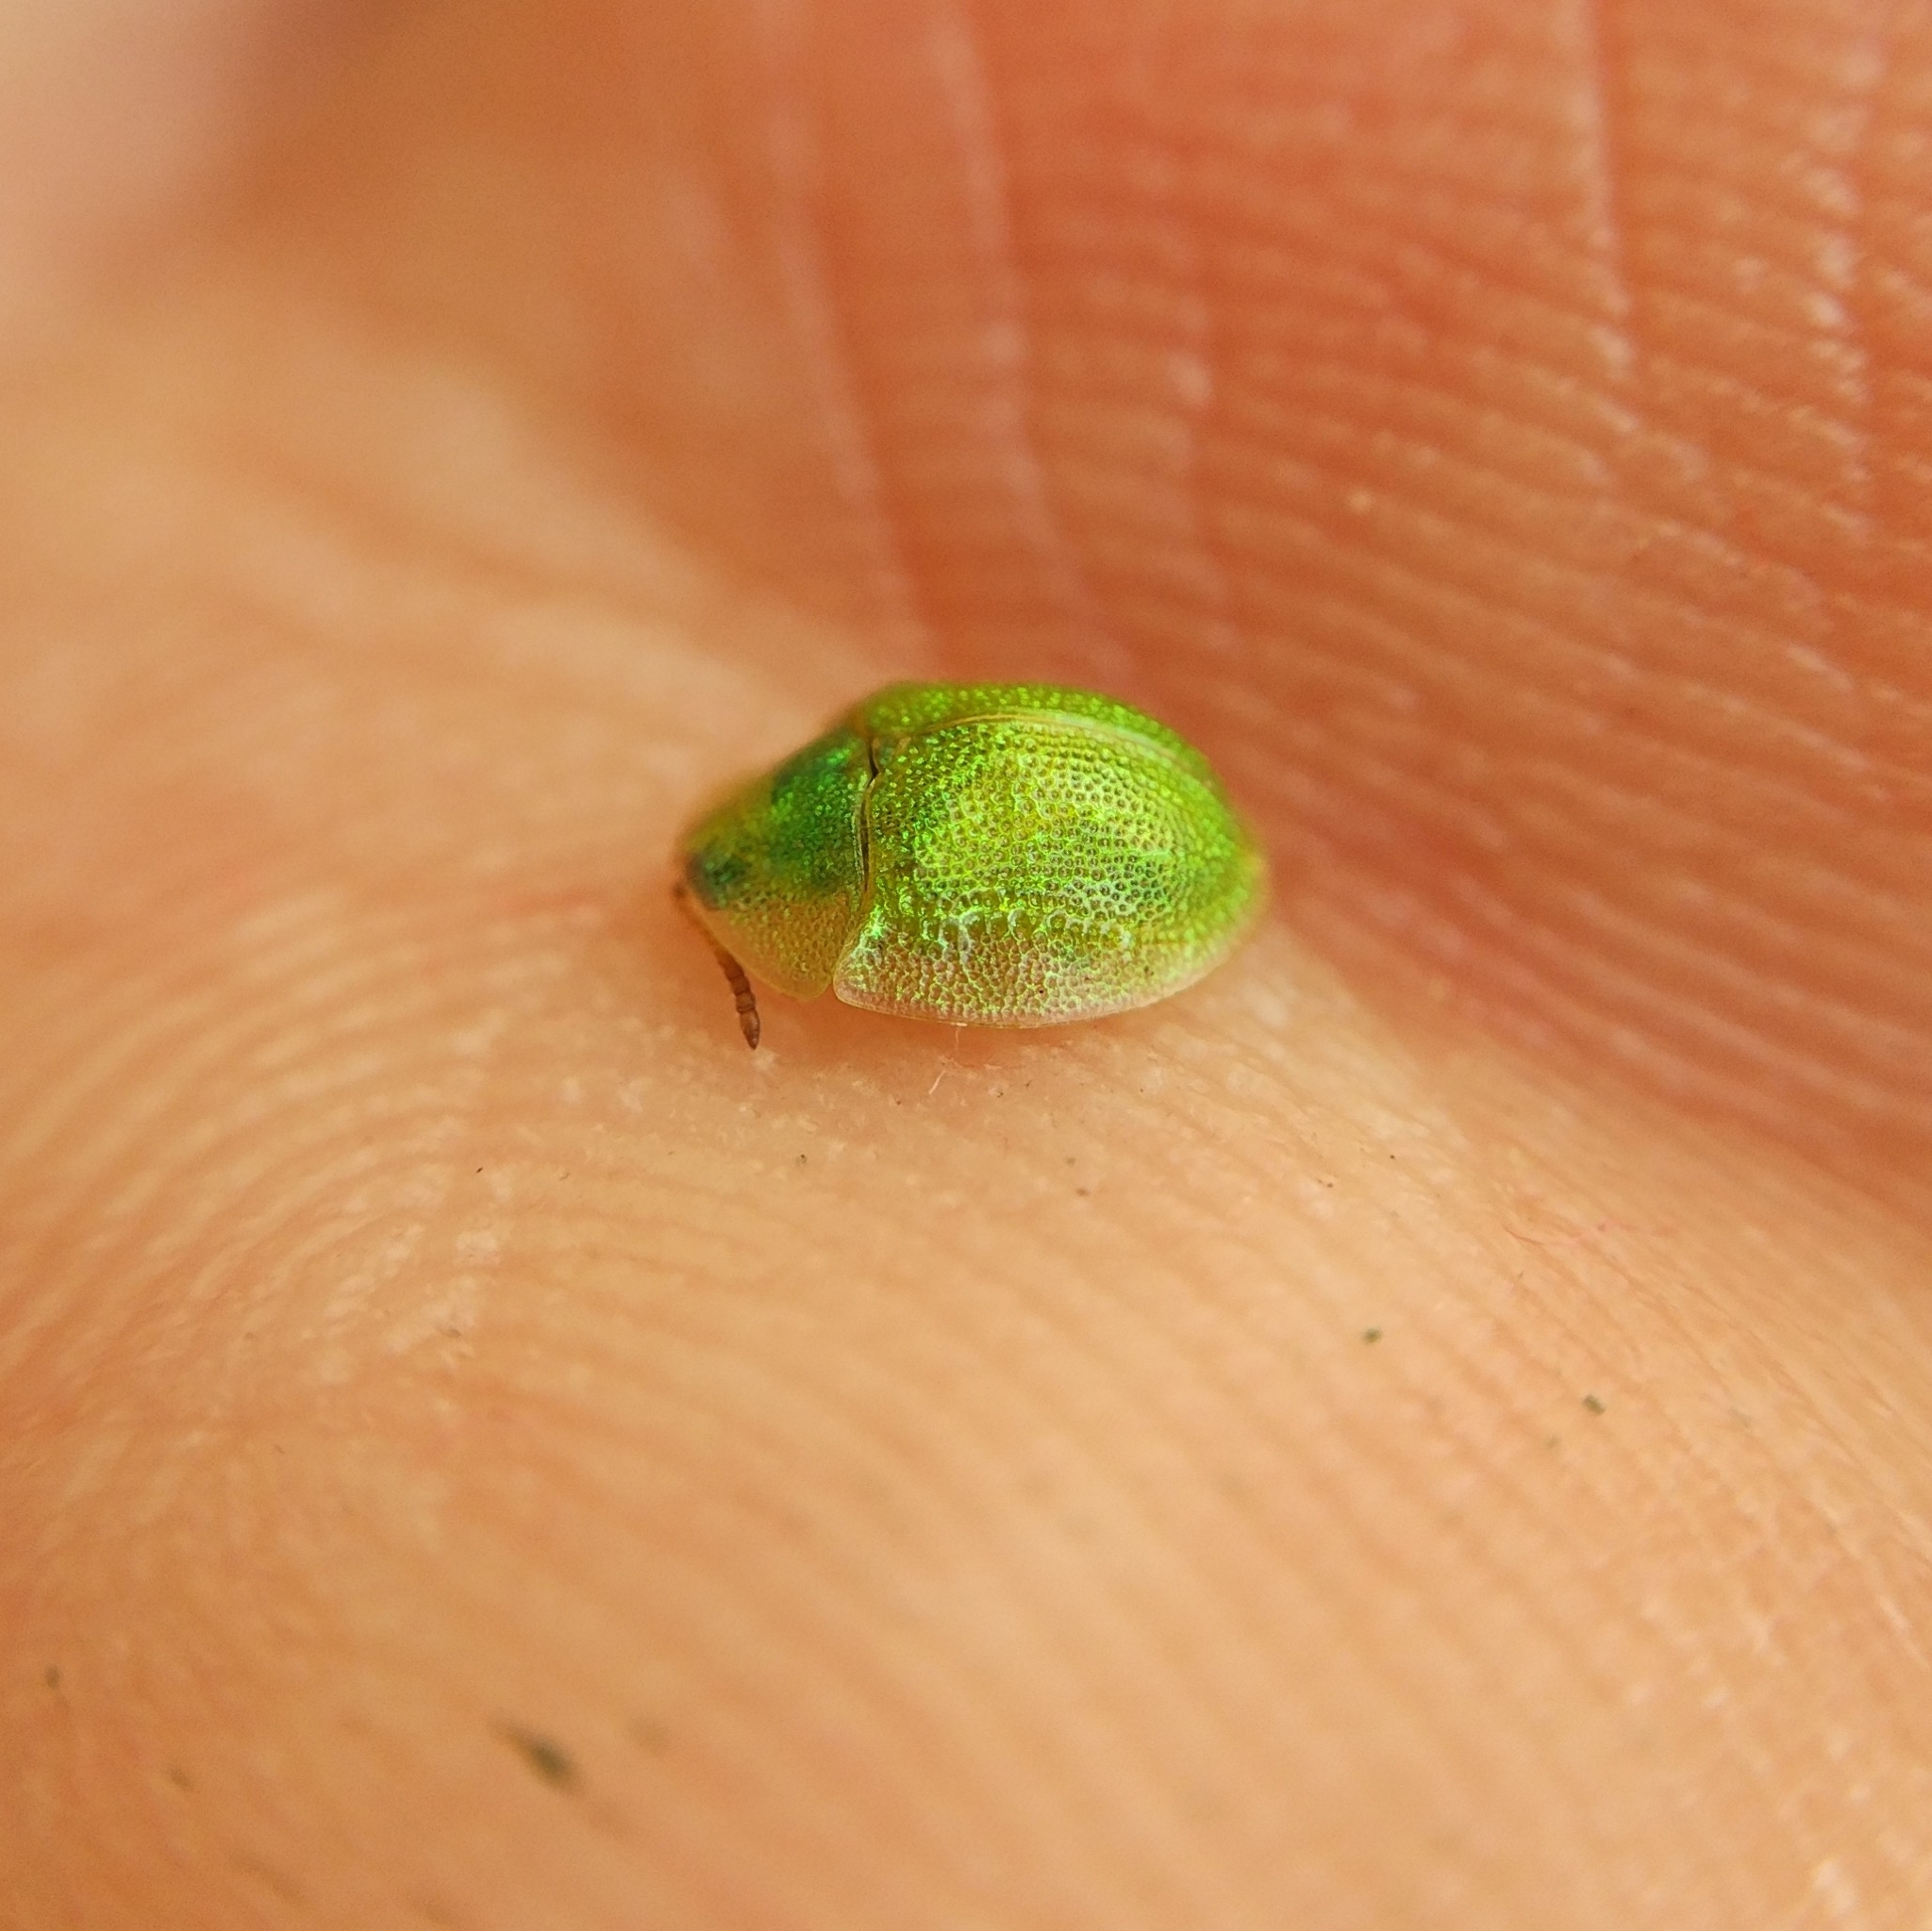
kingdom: Animalia
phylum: Arthropoda
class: Insecta
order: Coleoptera
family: Chrysomelidae
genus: Cassida
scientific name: Cassida hemisphaerica
